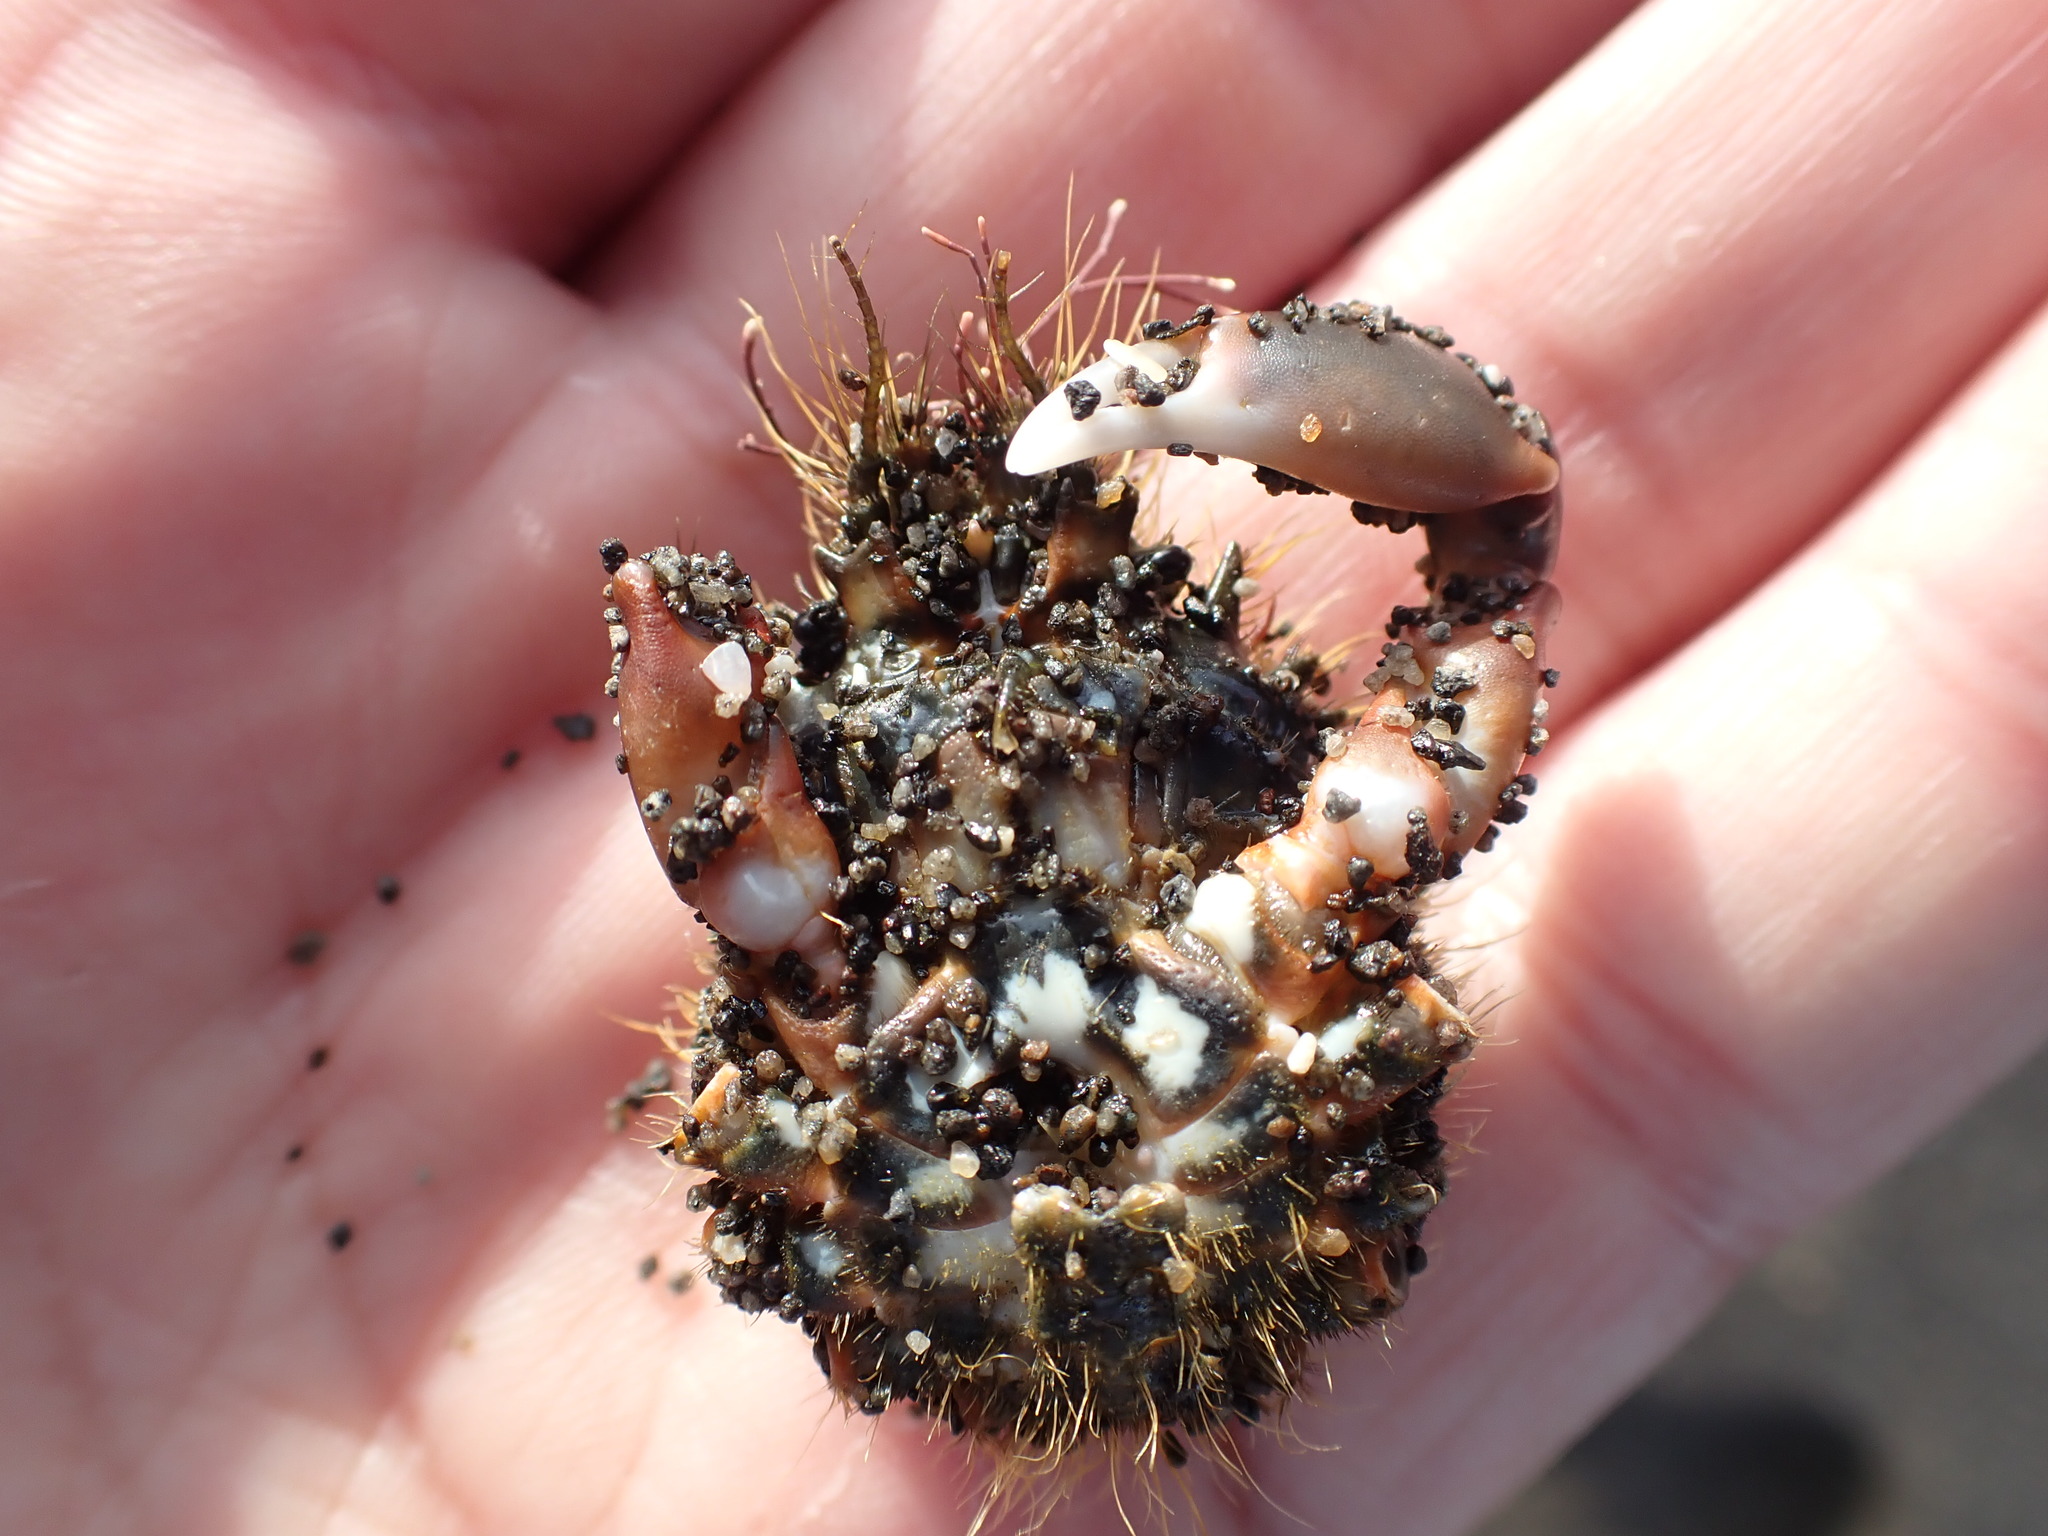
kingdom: Animalia
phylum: Arthropoda
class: Malacostraca
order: Decapoda
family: Majidae
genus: Notomithrax
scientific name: Notomithrax ursus
